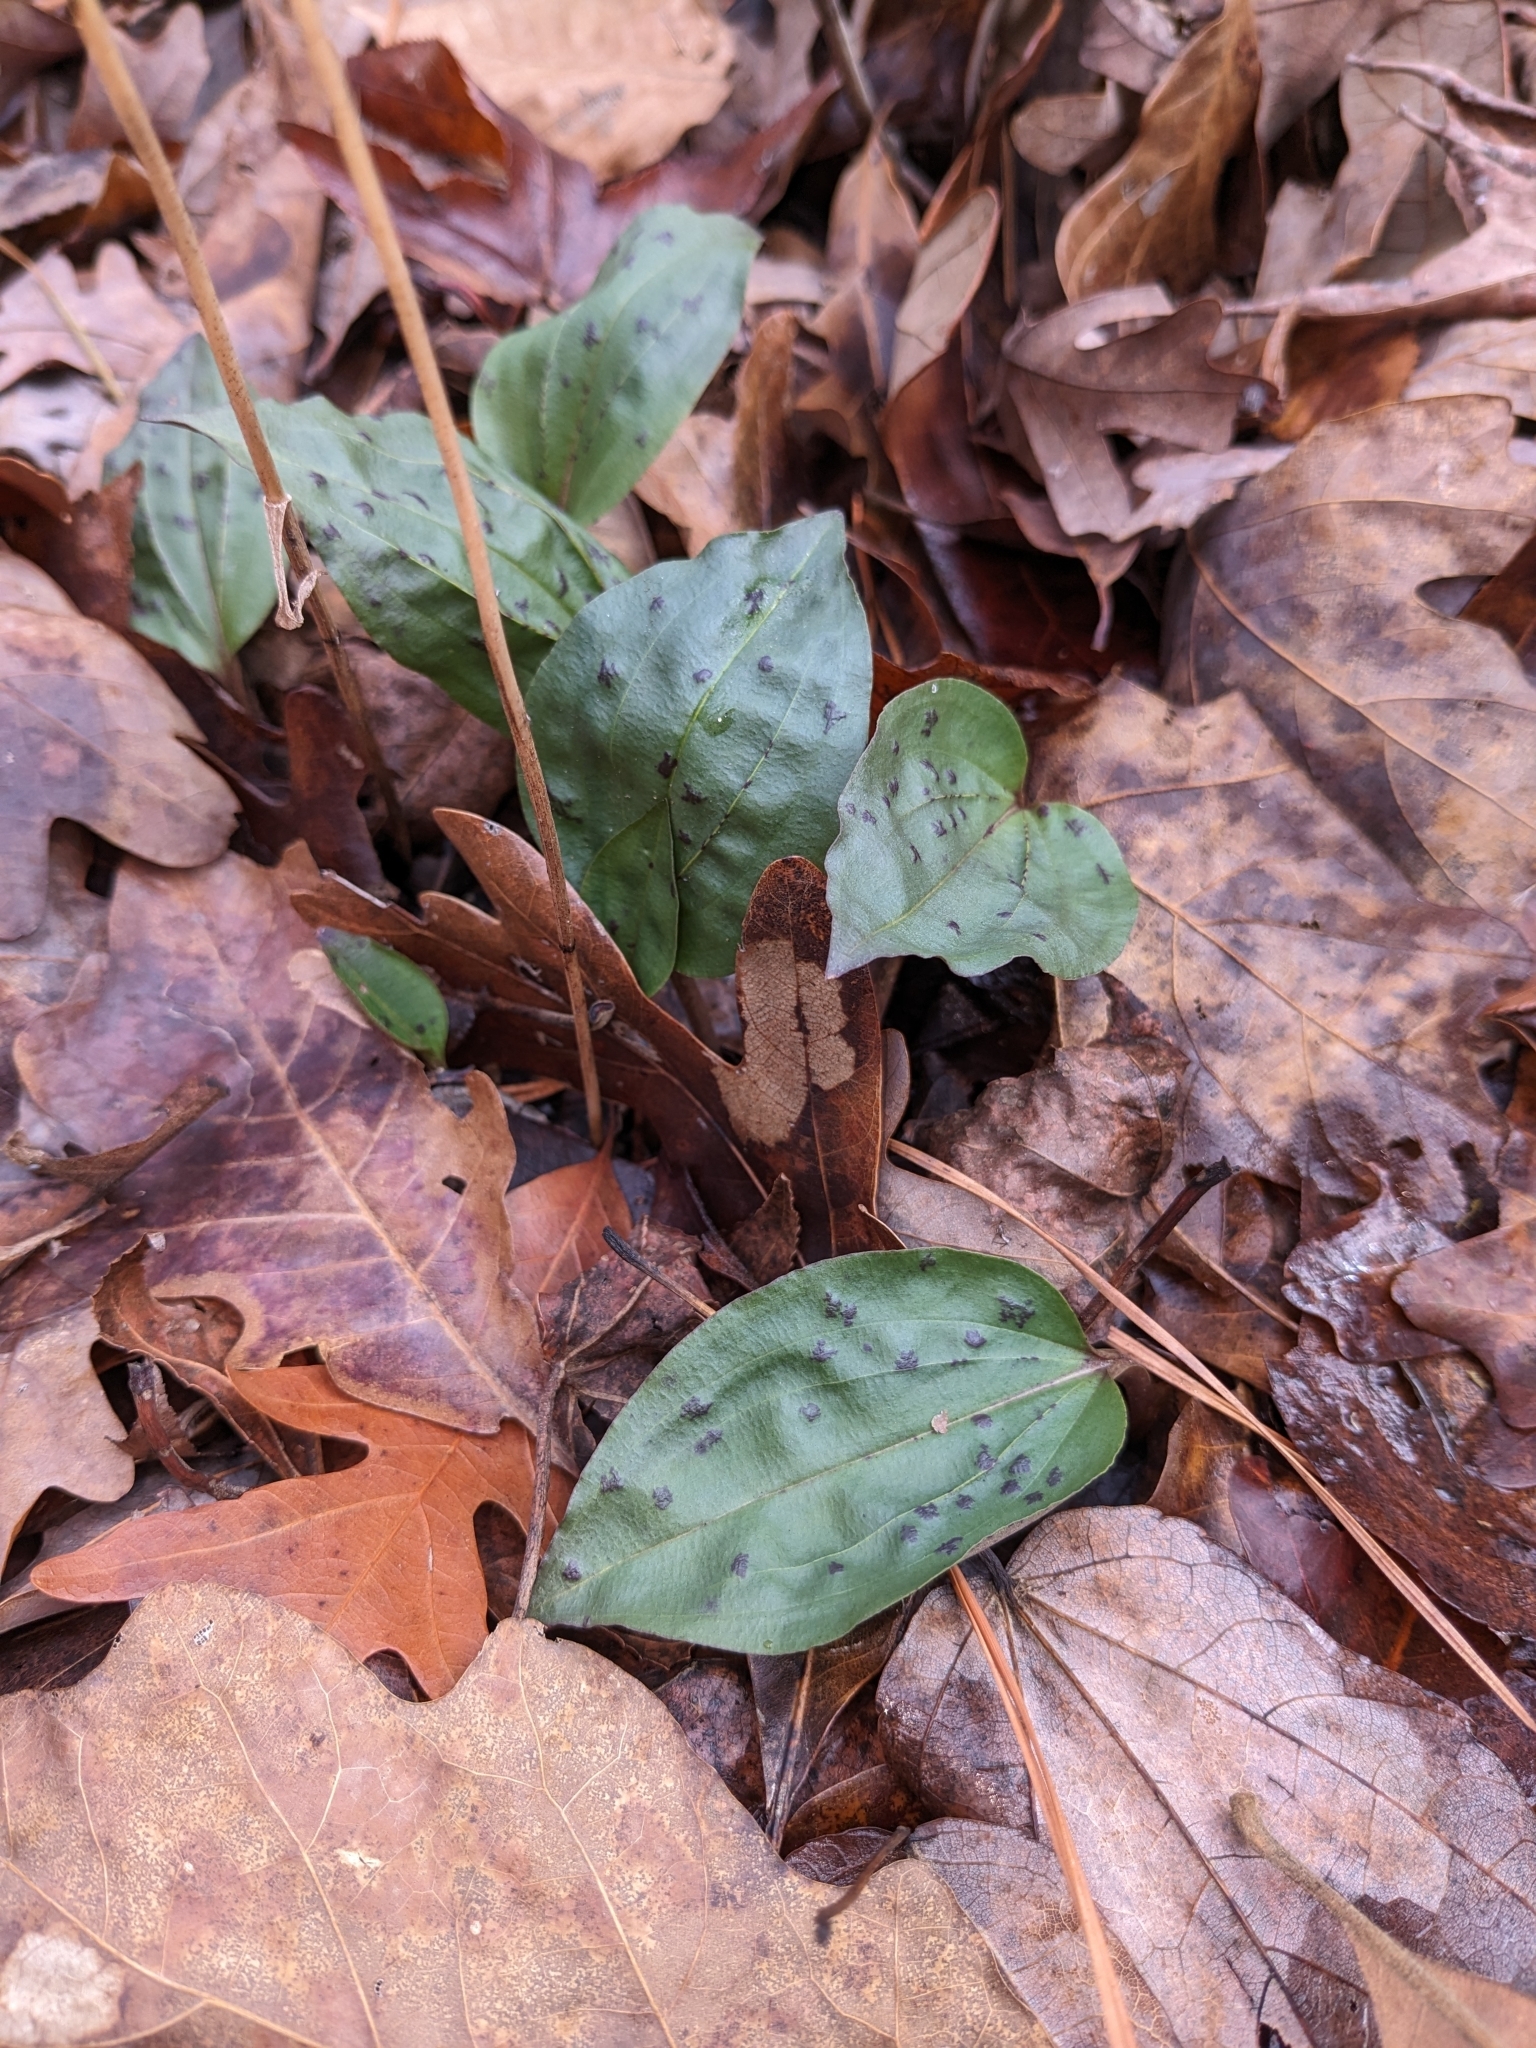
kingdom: Plantae
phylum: Tracheophyta
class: Liliopsida
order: Asparagales
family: Orchidaceae
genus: Tipularia
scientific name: Tipularia discolor
